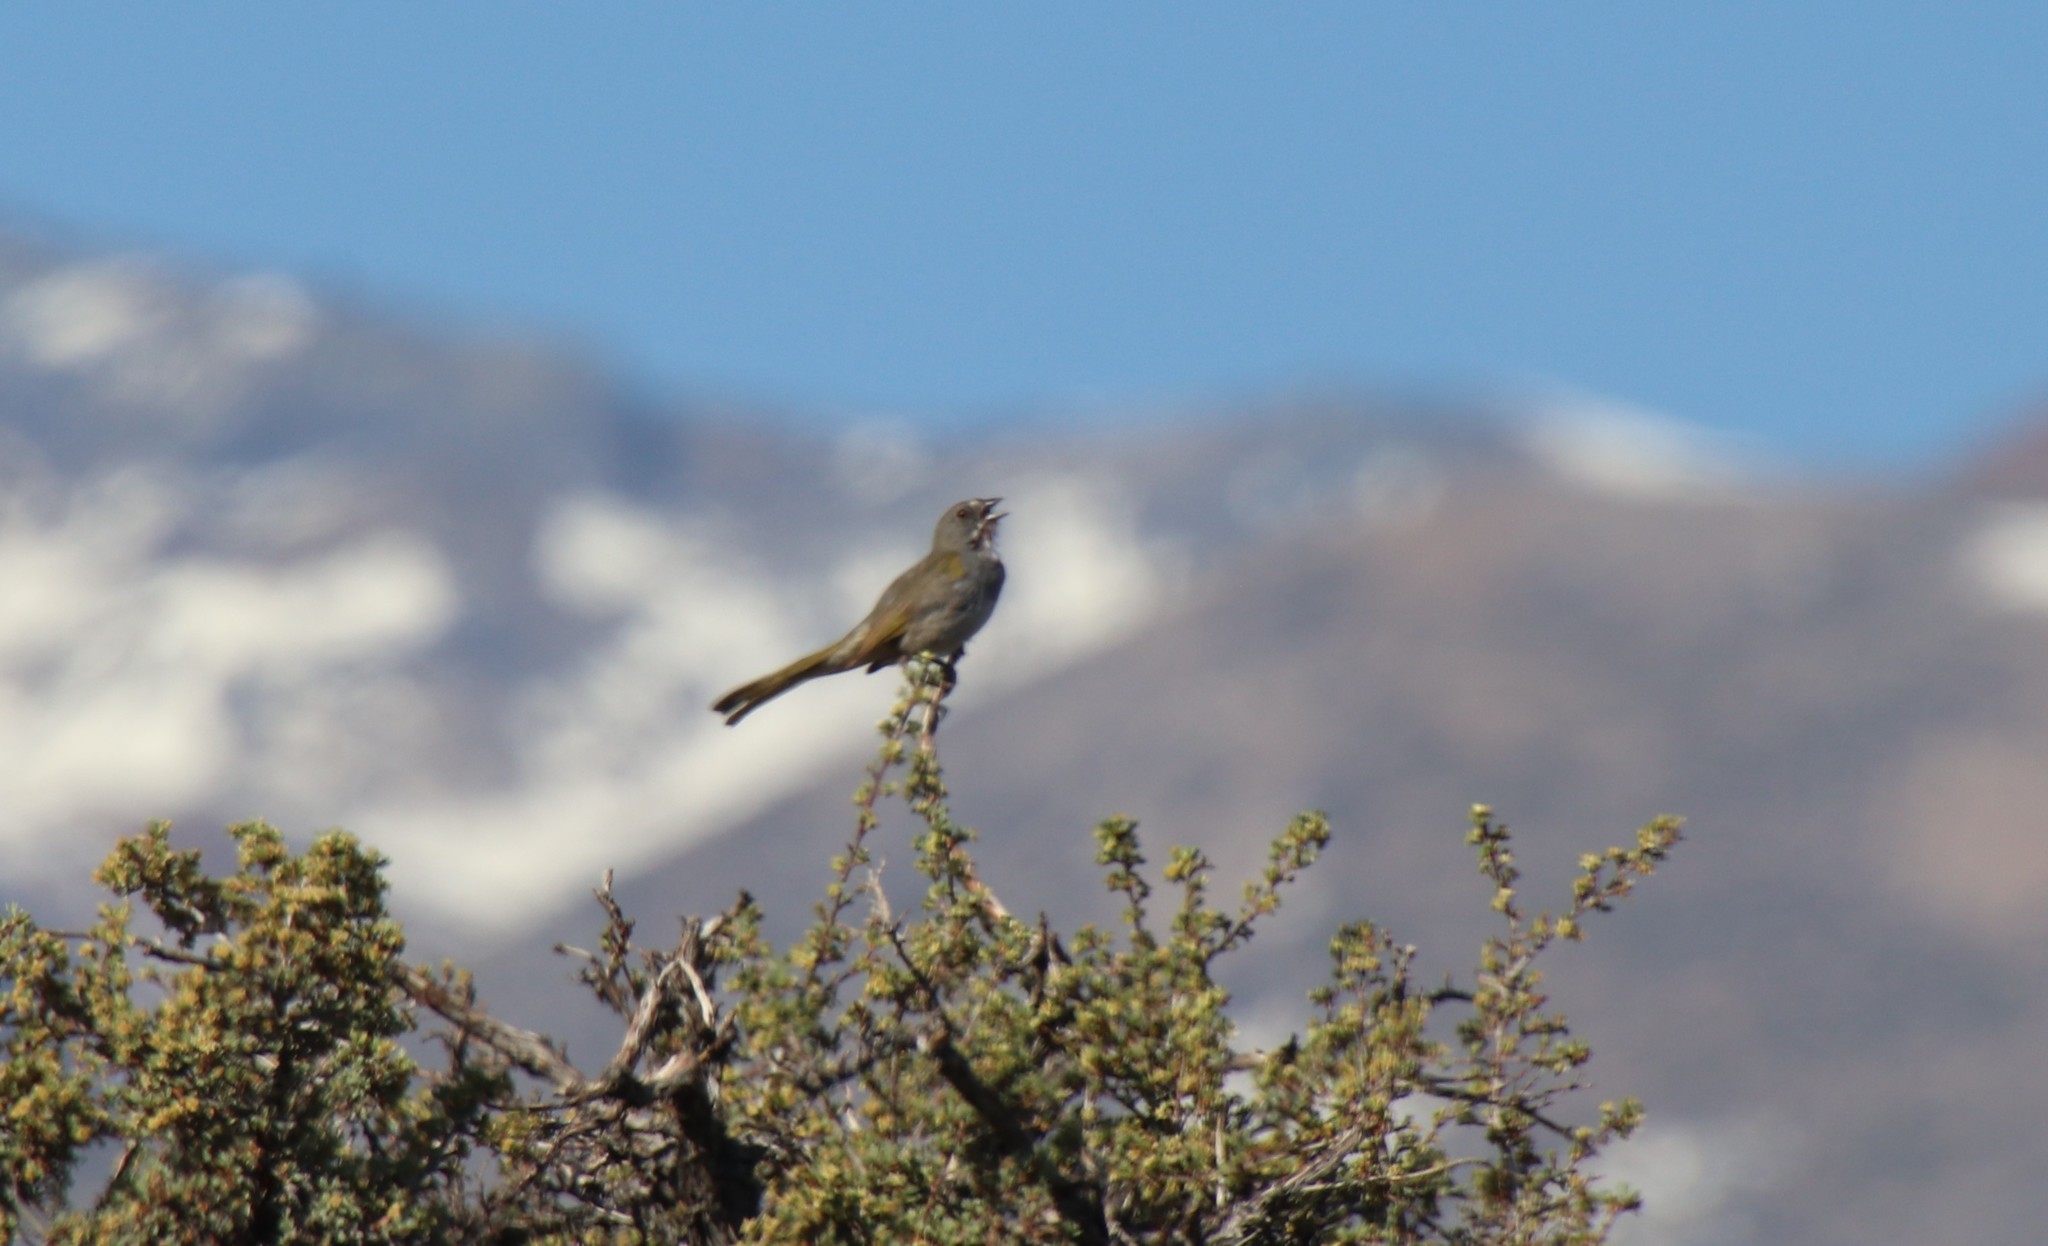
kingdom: Animalia
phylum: Chordata
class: Aves
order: Passeriformes
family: Passerellidae
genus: Pipilo
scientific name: Pipilo chlorurus
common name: Green-tailed towhee
